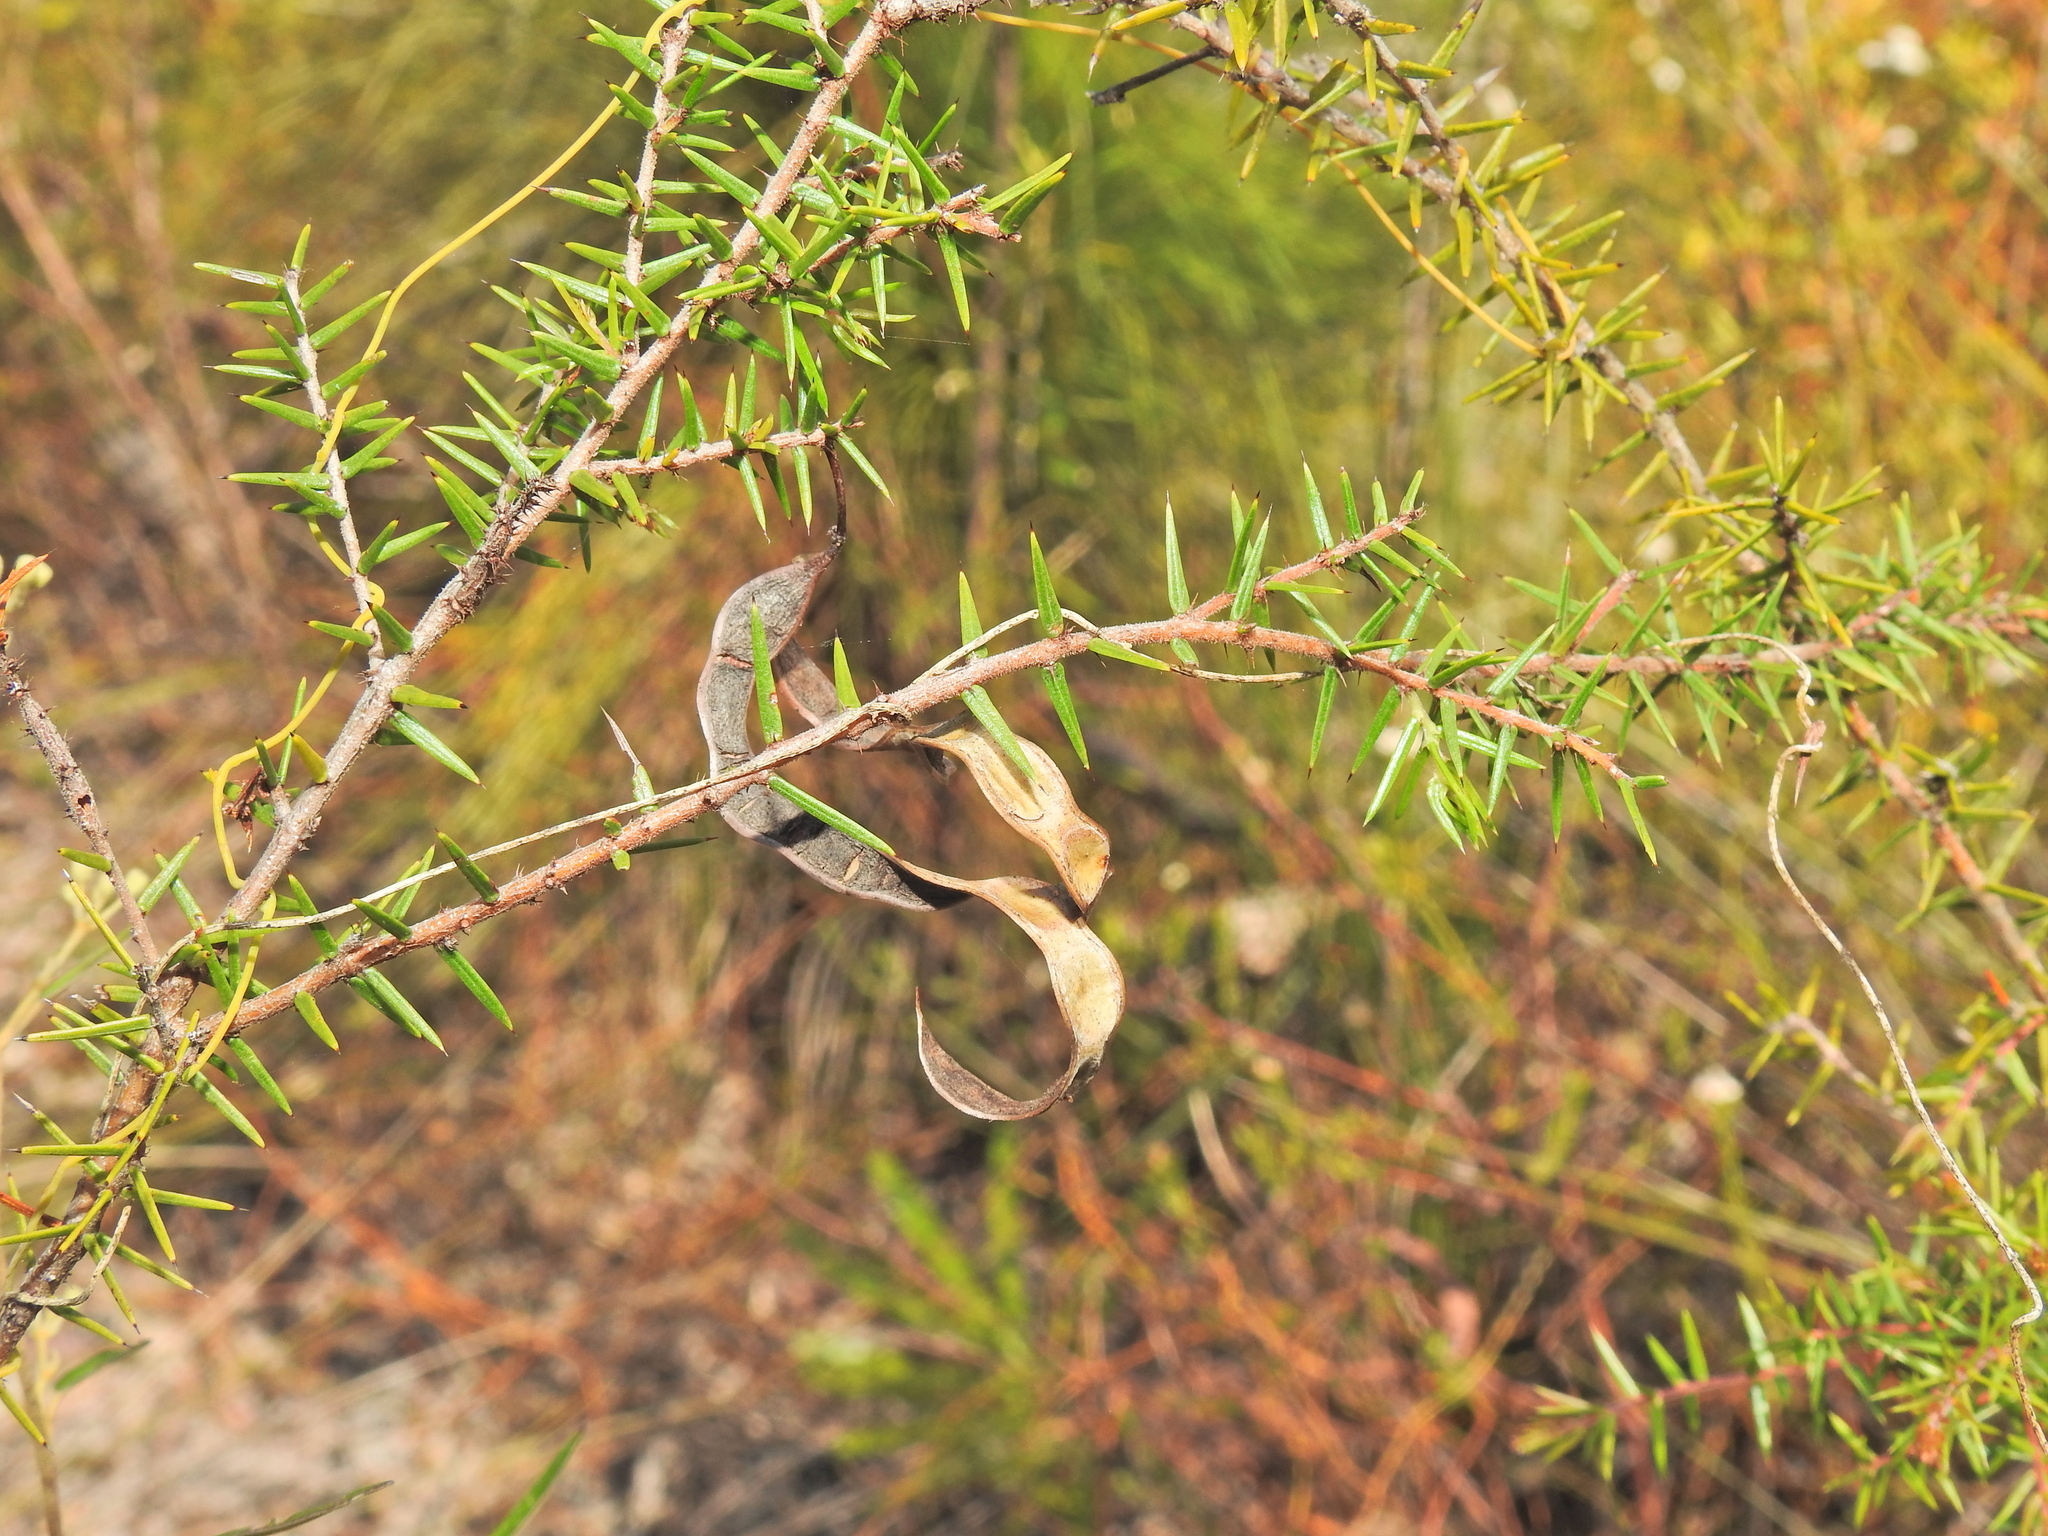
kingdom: Plantae
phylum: Tracheophyta
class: Magnoliopsida
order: Fabales
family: Fabaceae
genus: Acacia
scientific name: Acacia ulicifolia
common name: Juniper wattle
